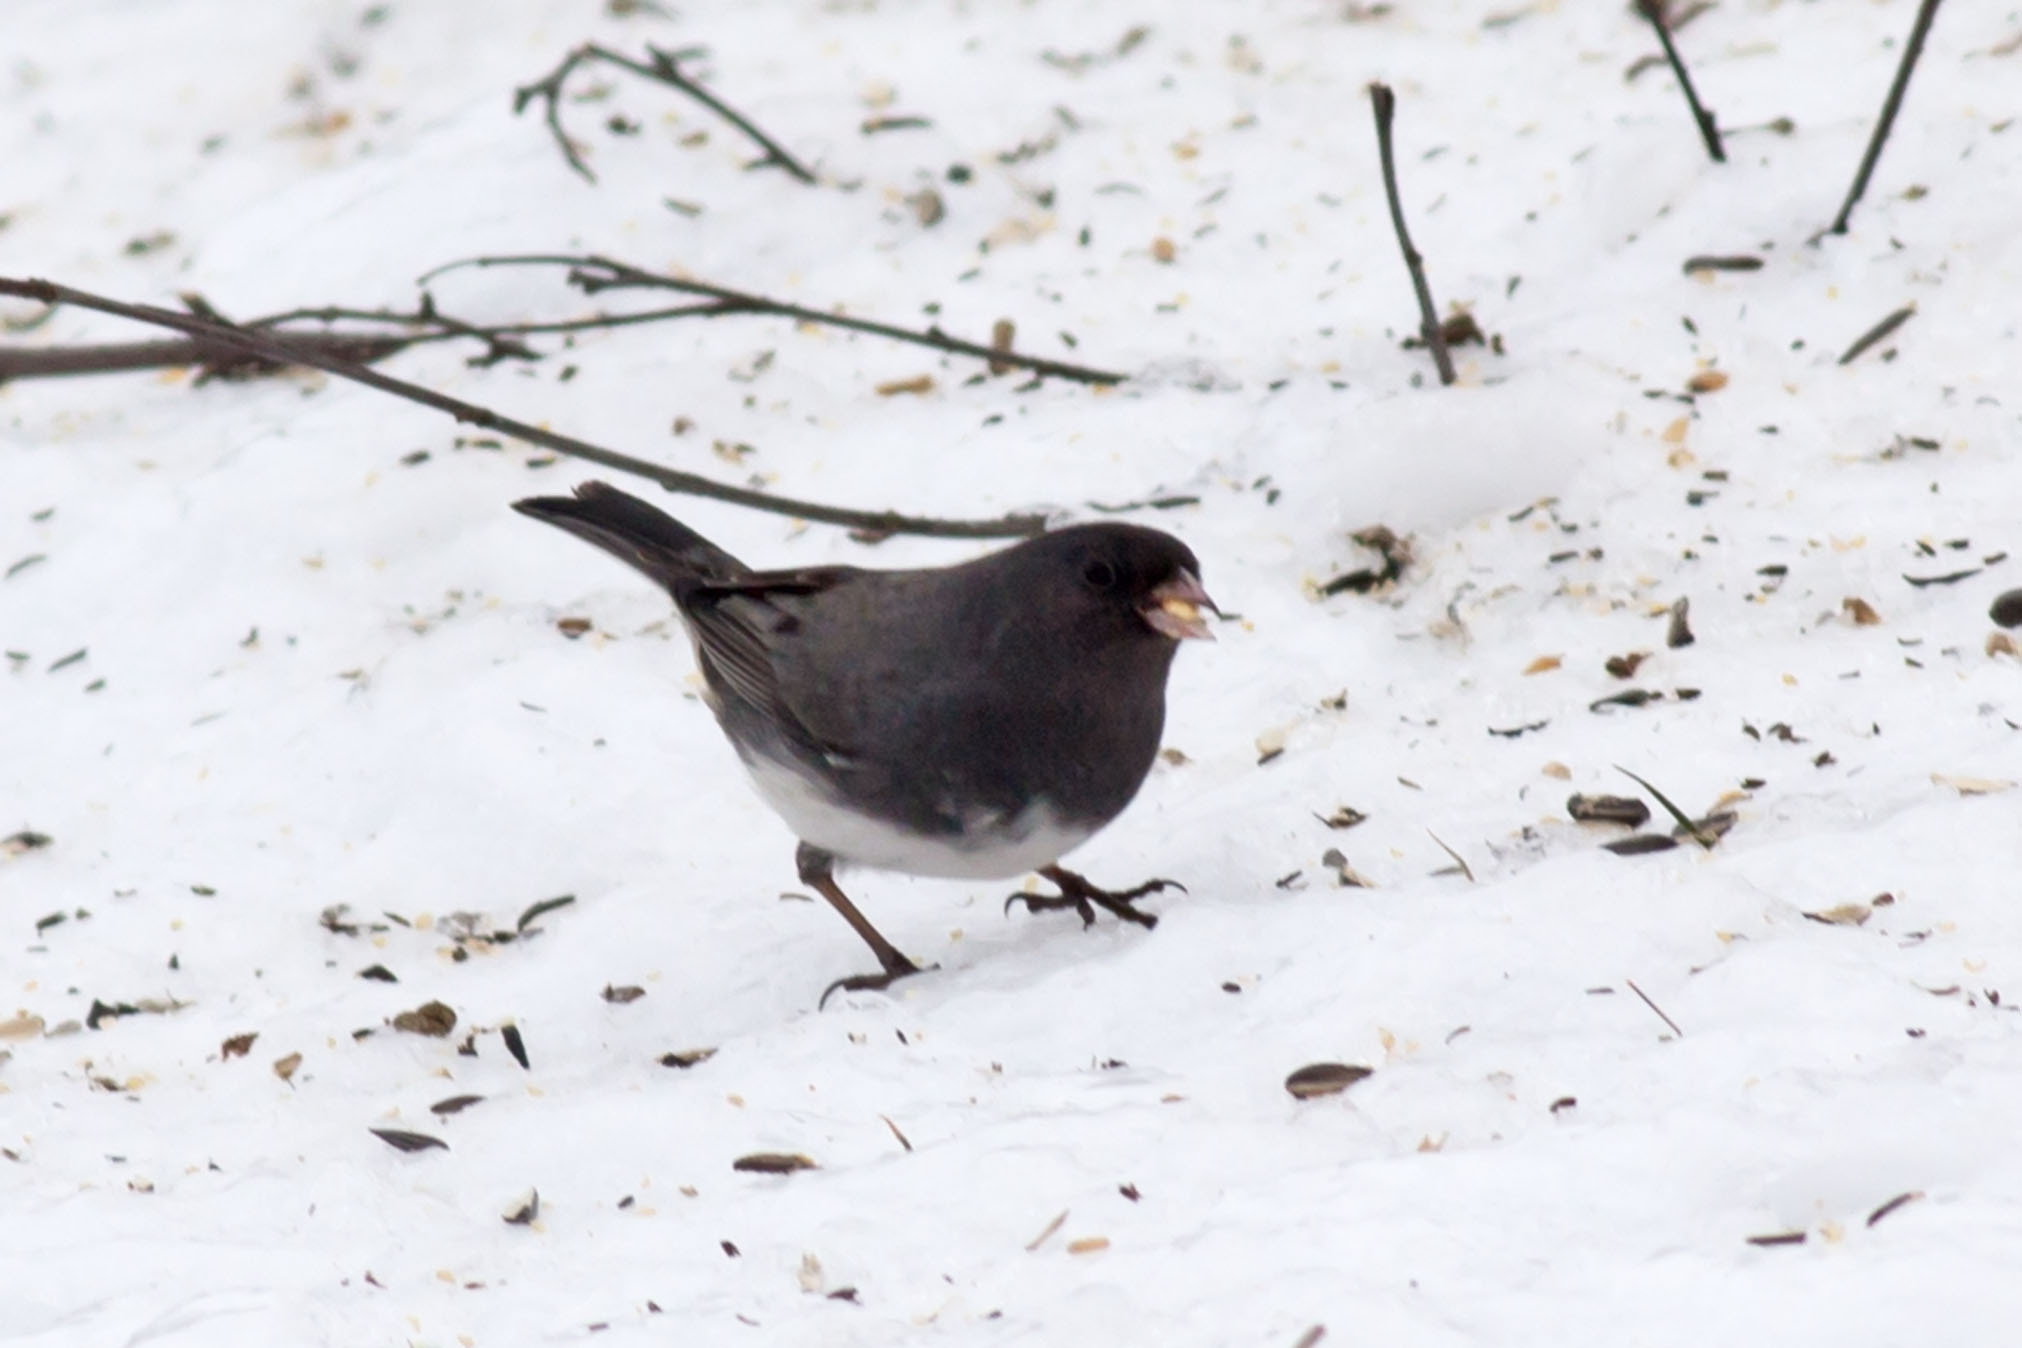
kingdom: Animalia
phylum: Chordata
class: Aves
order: Passeriformes
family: Passerellidae
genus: Junco
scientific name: Junco hyemalis
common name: Dark-eyed junco
